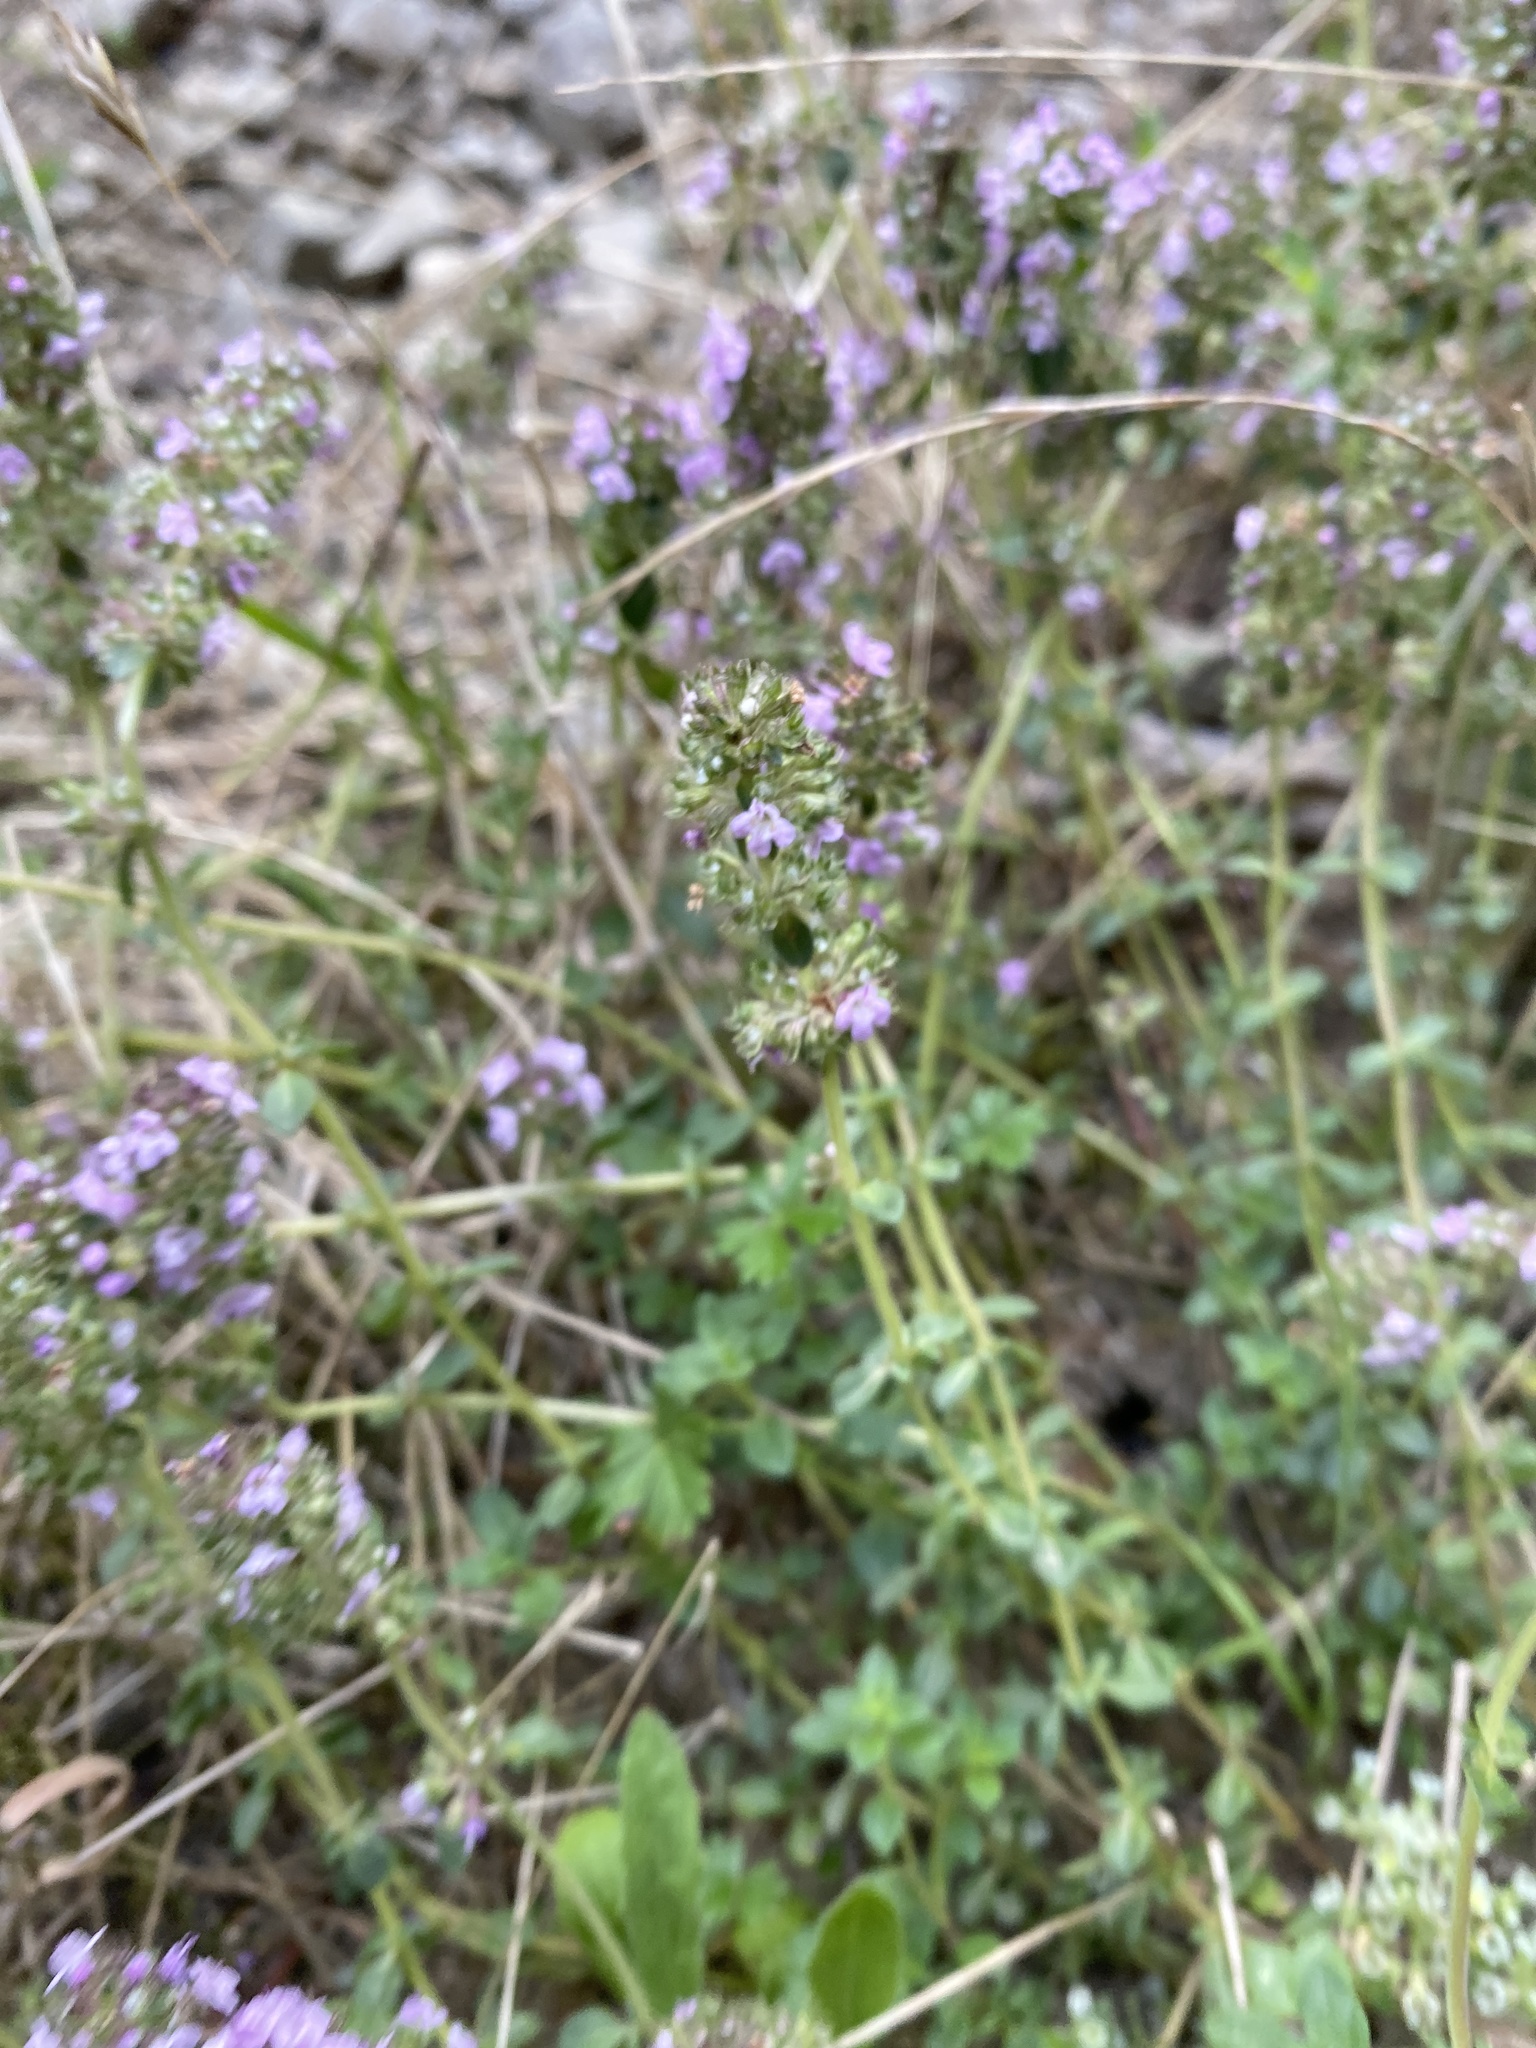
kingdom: Plantae
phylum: Tracheophyta
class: Magnoliopsida
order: Lamiales
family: Lamiaceae
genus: Thymus
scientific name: Thymus pulegioides
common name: Large thyme
